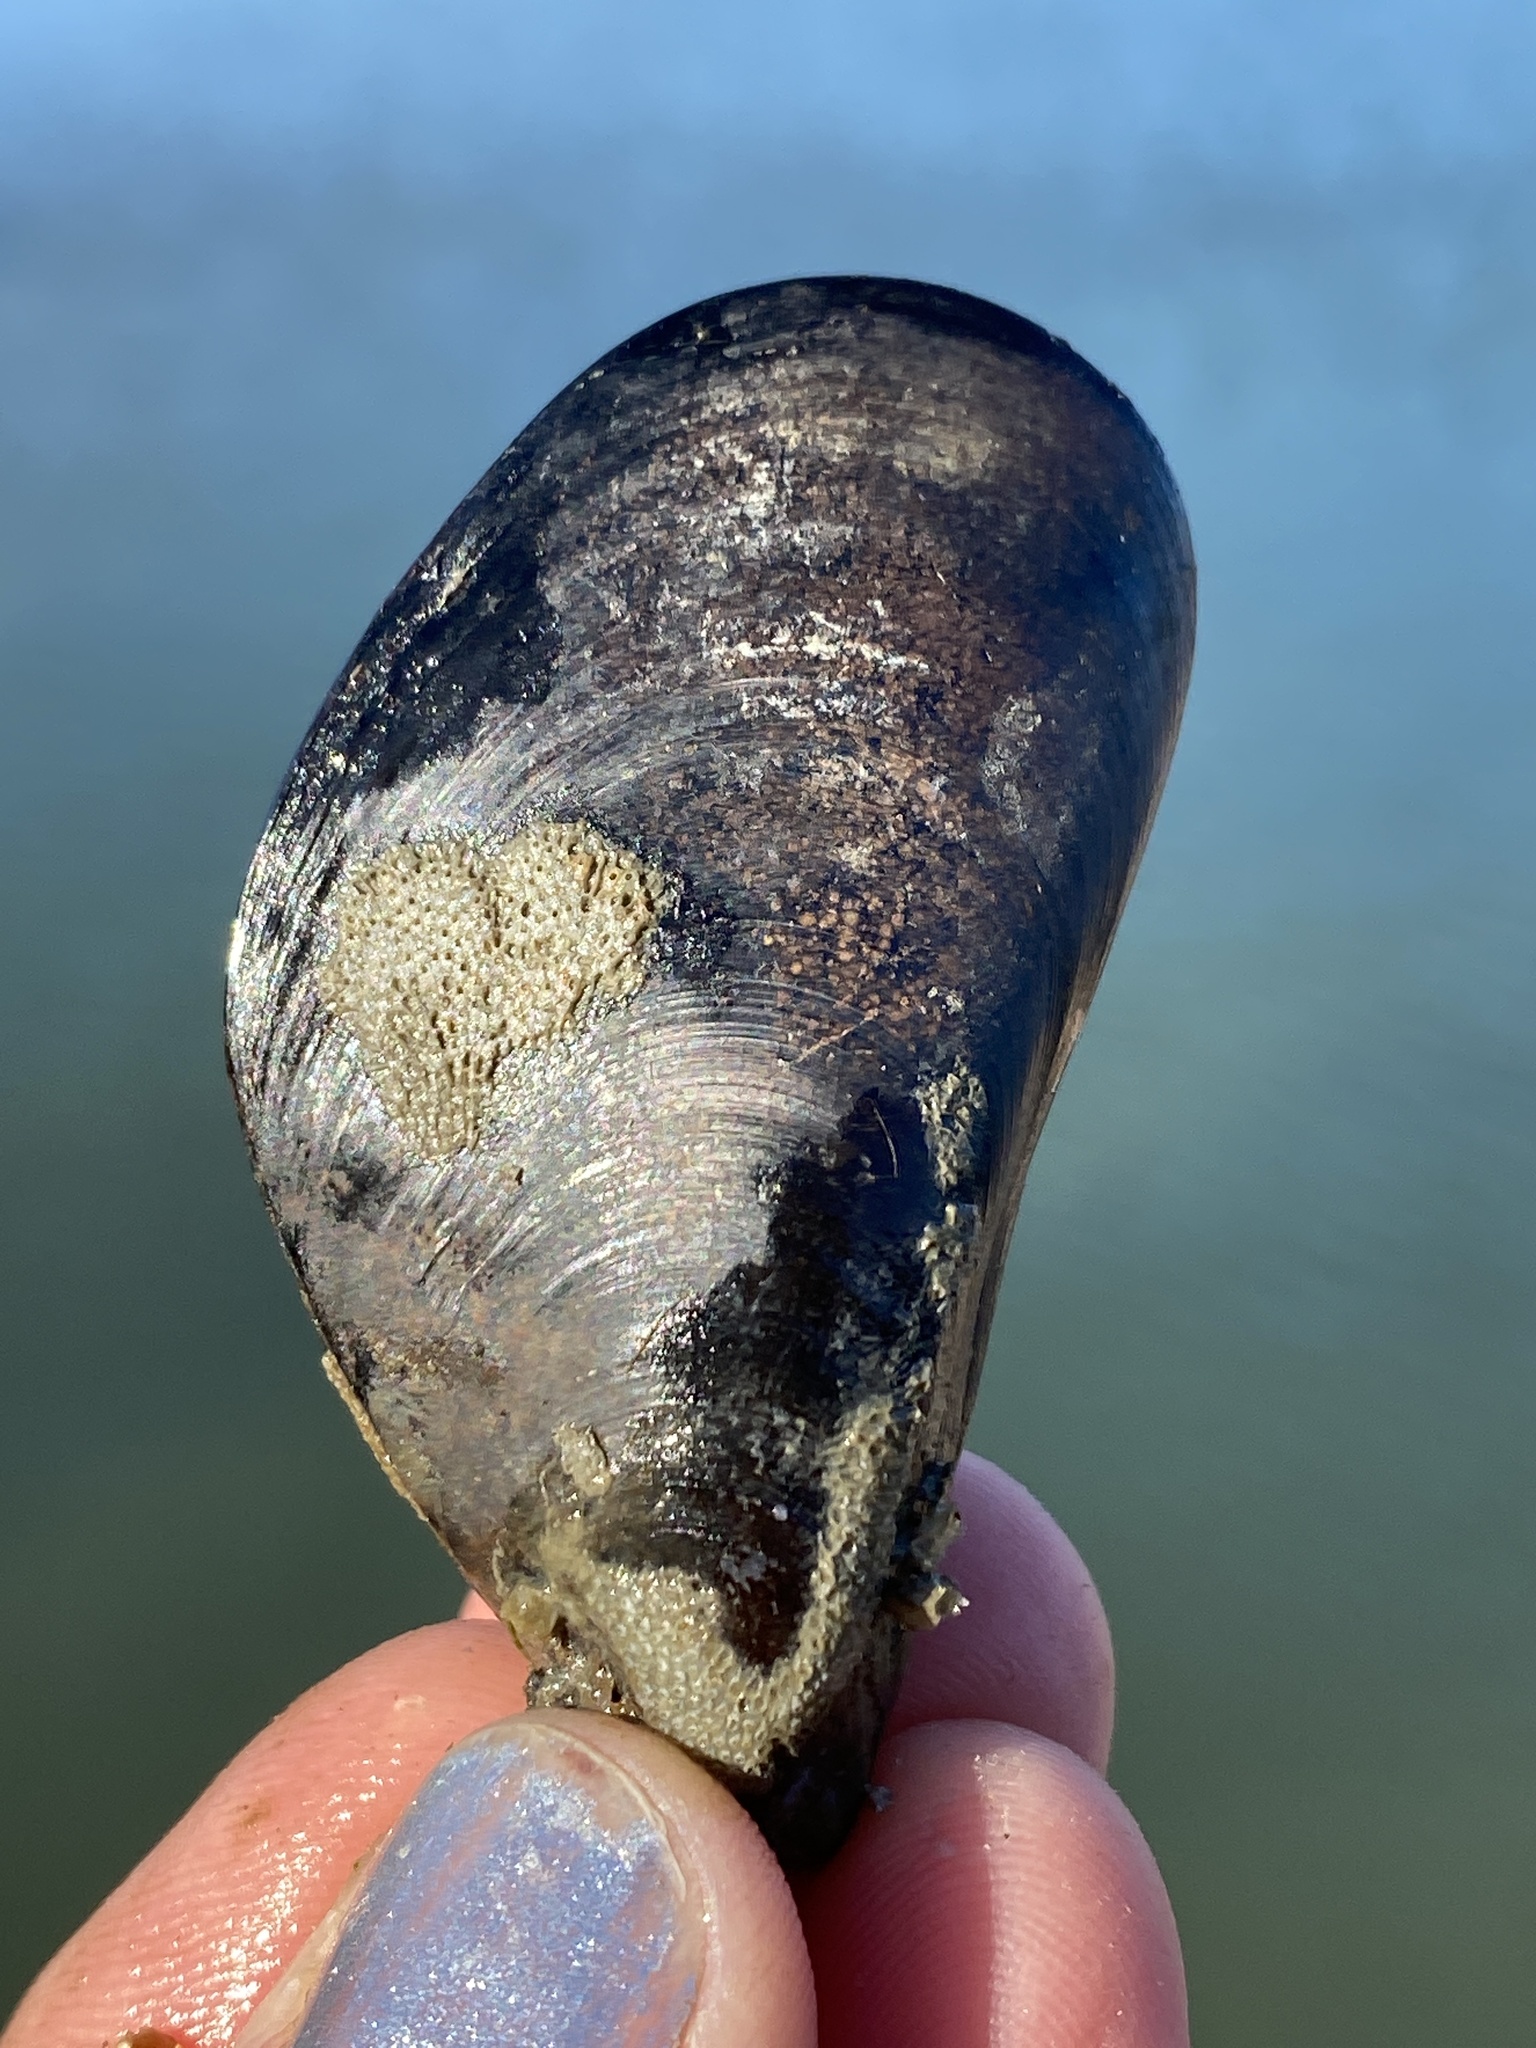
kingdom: Animalia
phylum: Mollusca
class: Bivalvia
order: Mytilida
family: Mytilidae
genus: Mytilus
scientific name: Mytilus
